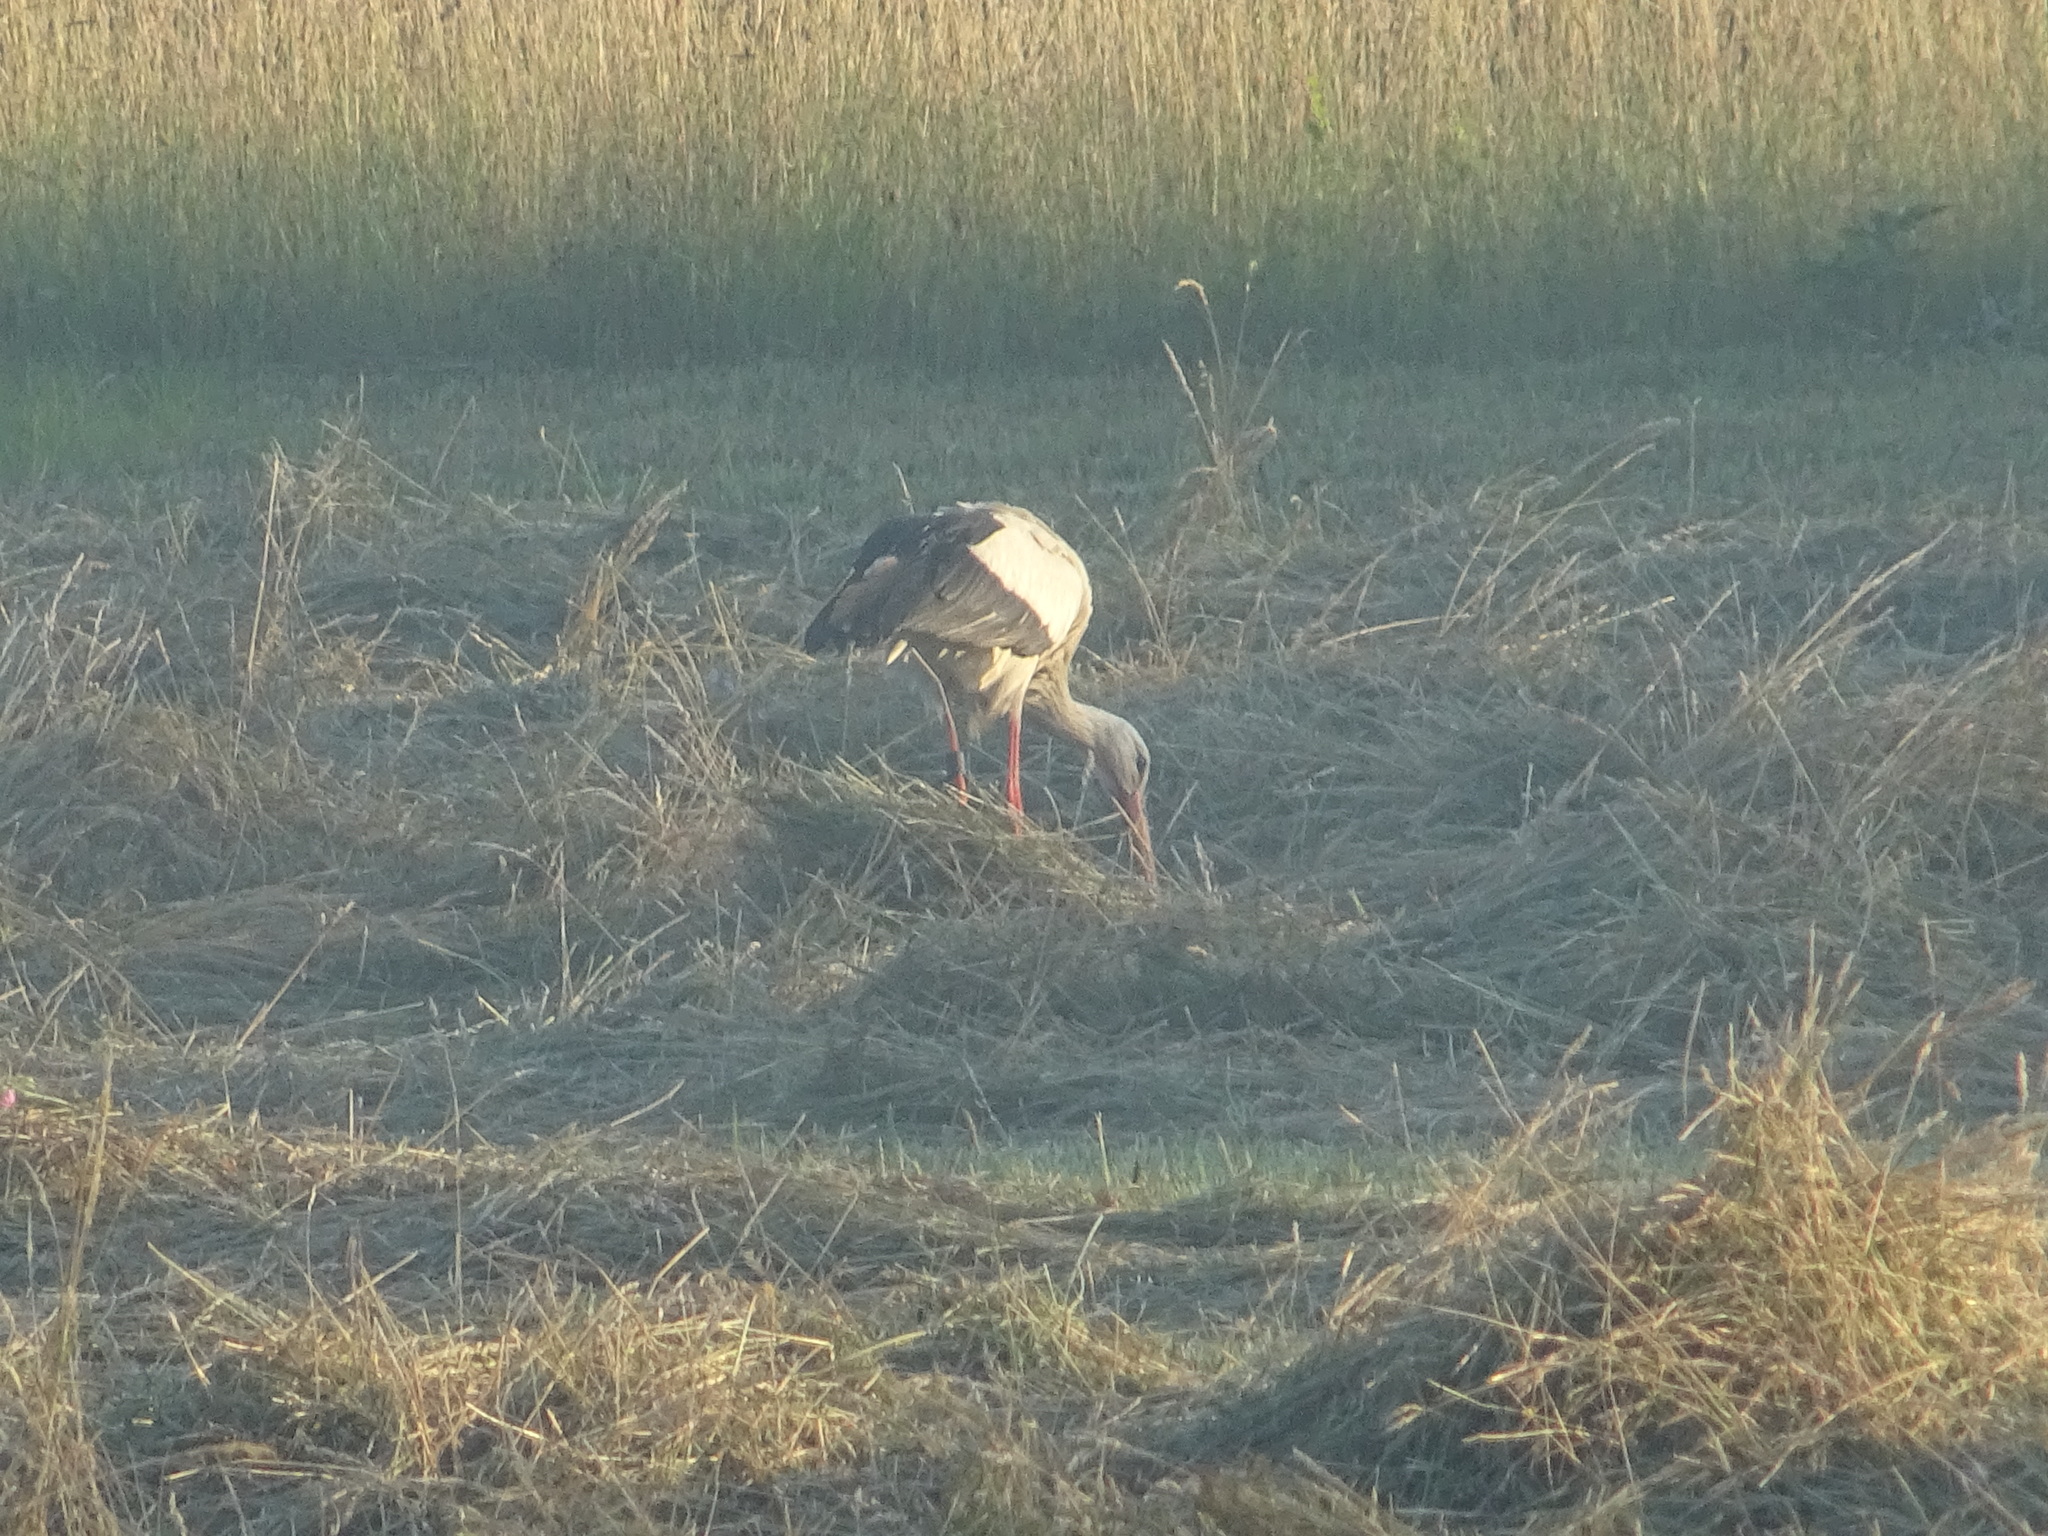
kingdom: Animalia
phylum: Chordata
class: Aves
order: Ciconiiformes
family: Ciconiidae
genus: Ciconia
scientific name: Ciconia ciconia
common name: White stork
